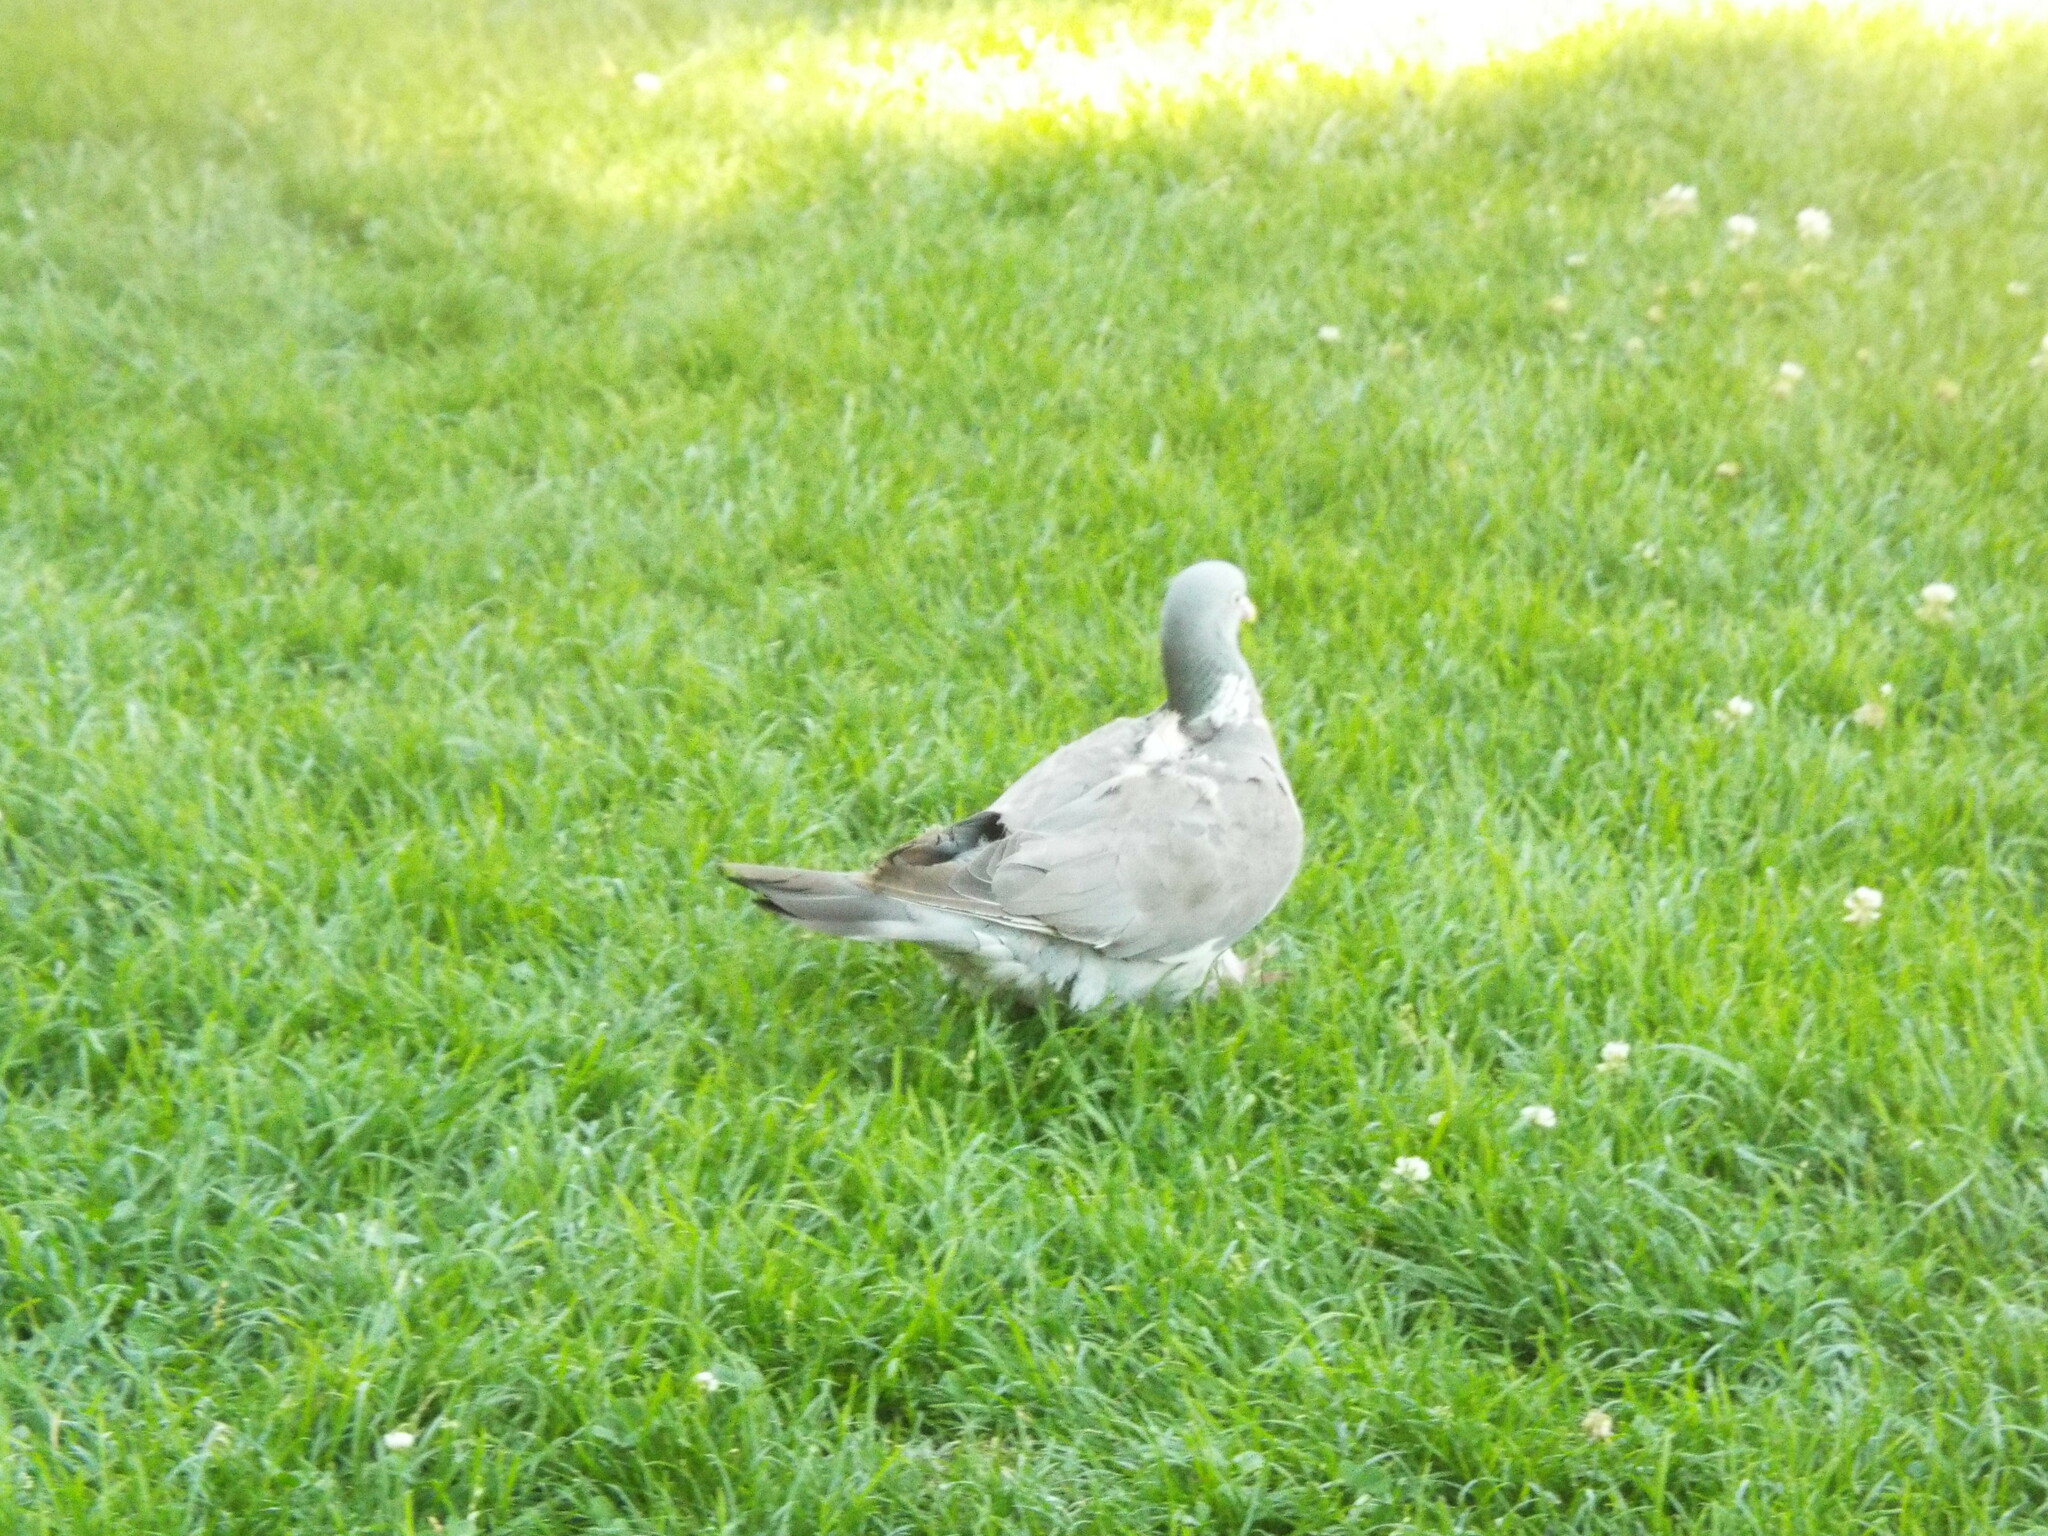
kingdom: Animalia
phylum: Chordata
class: Aves
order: Columbiformes
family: Columbidae
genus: Columba
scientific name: Columba palumbus
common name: Common wood pigeon
